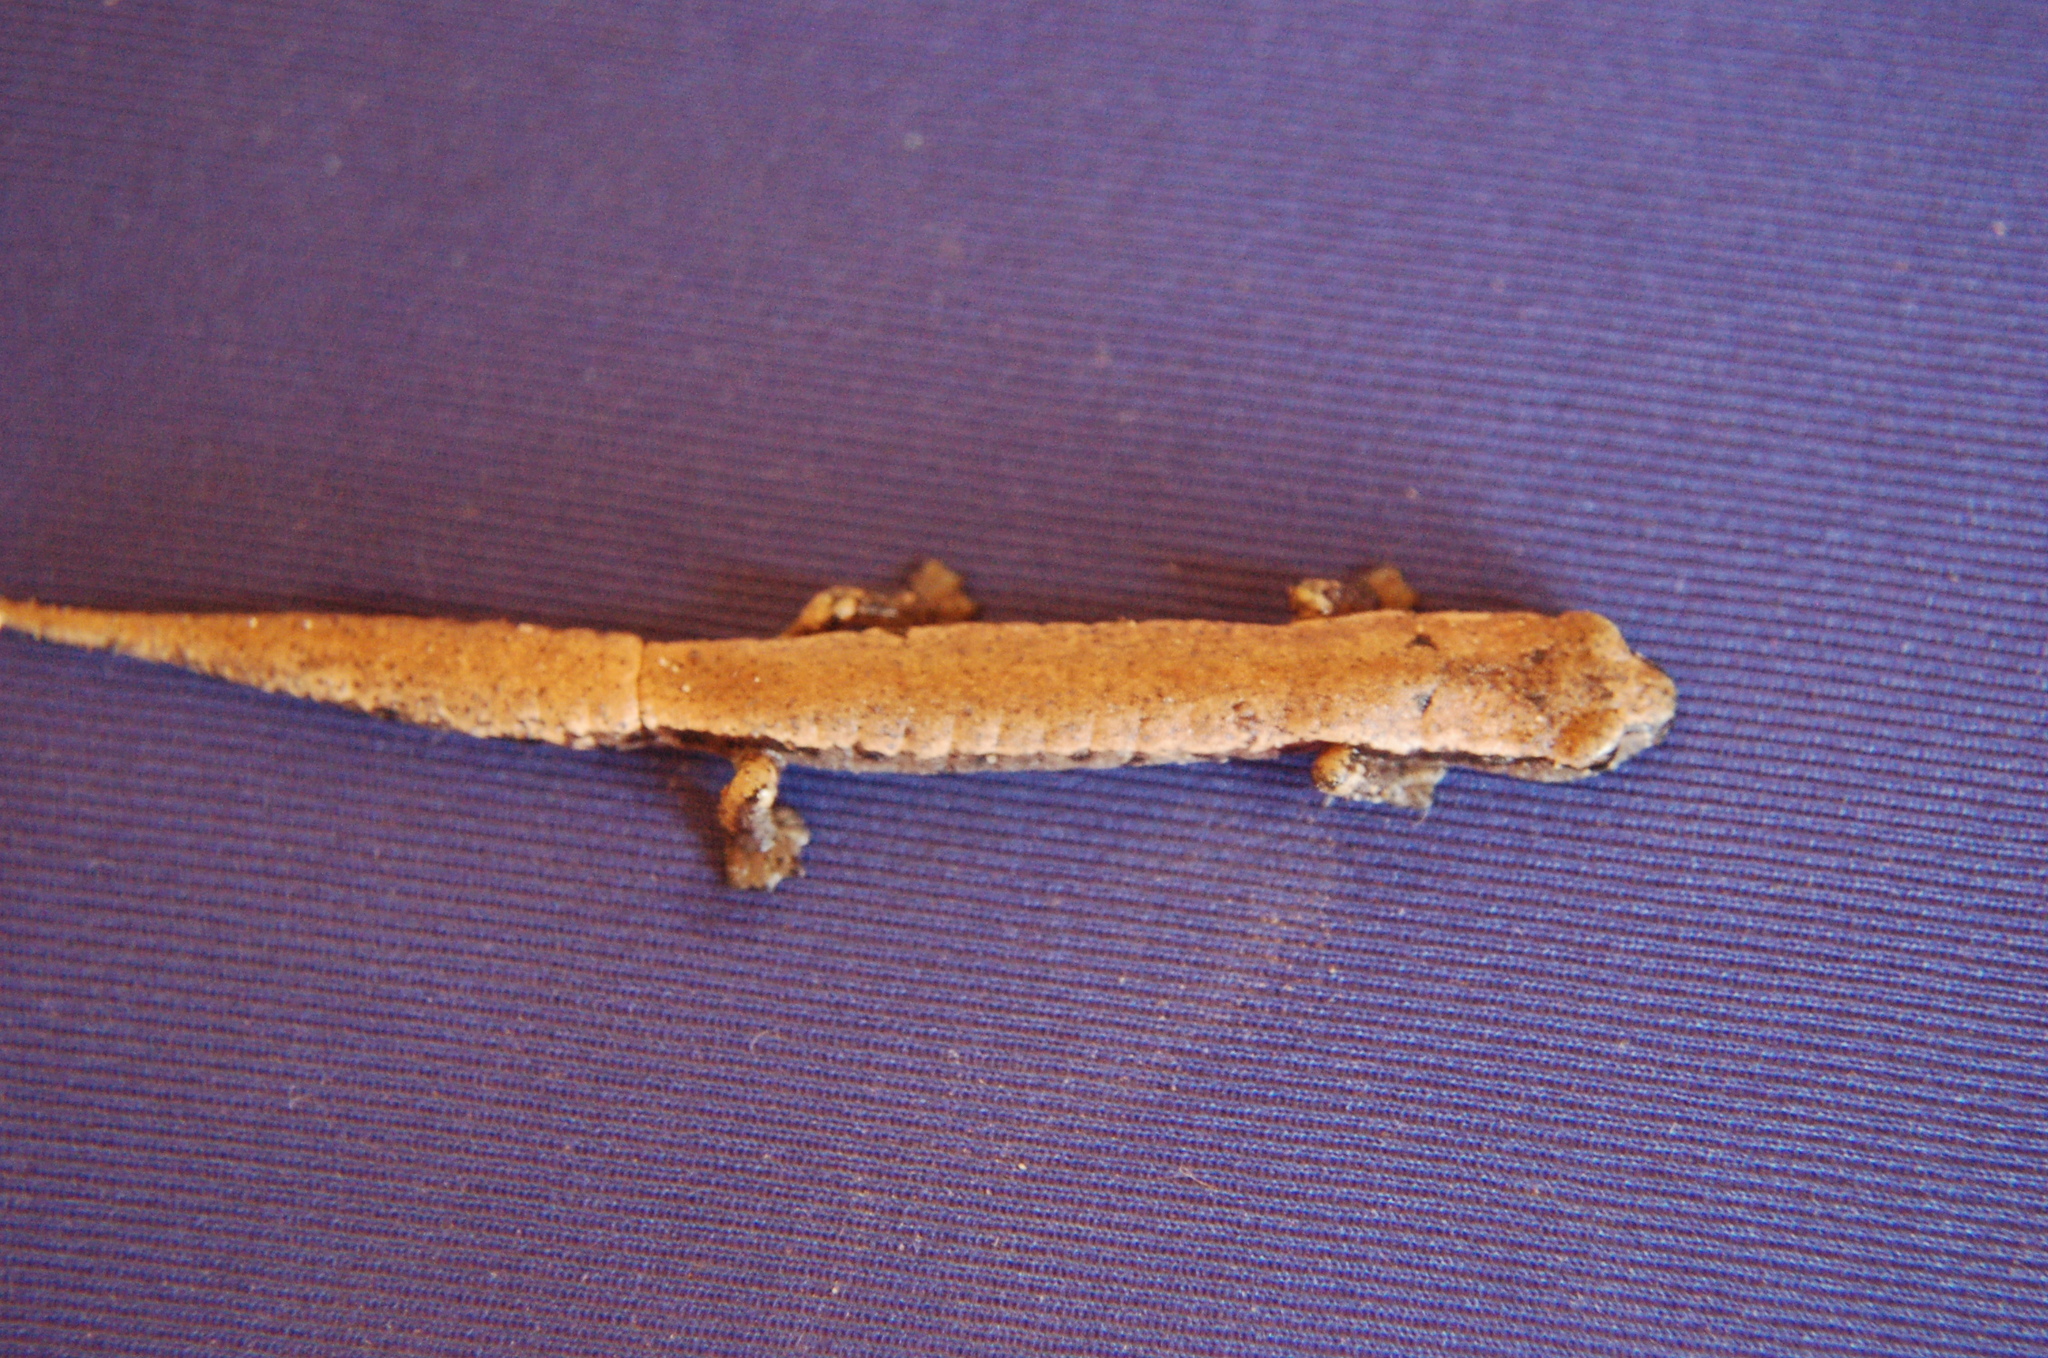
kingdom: Animalia
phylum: Chordata
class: Amphibia
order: Caudata
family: Plethodontidae
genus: Bolitoglossa
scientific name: Bolitoglossa hartwegi
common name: Hartweg's mushroomtongue salamander
